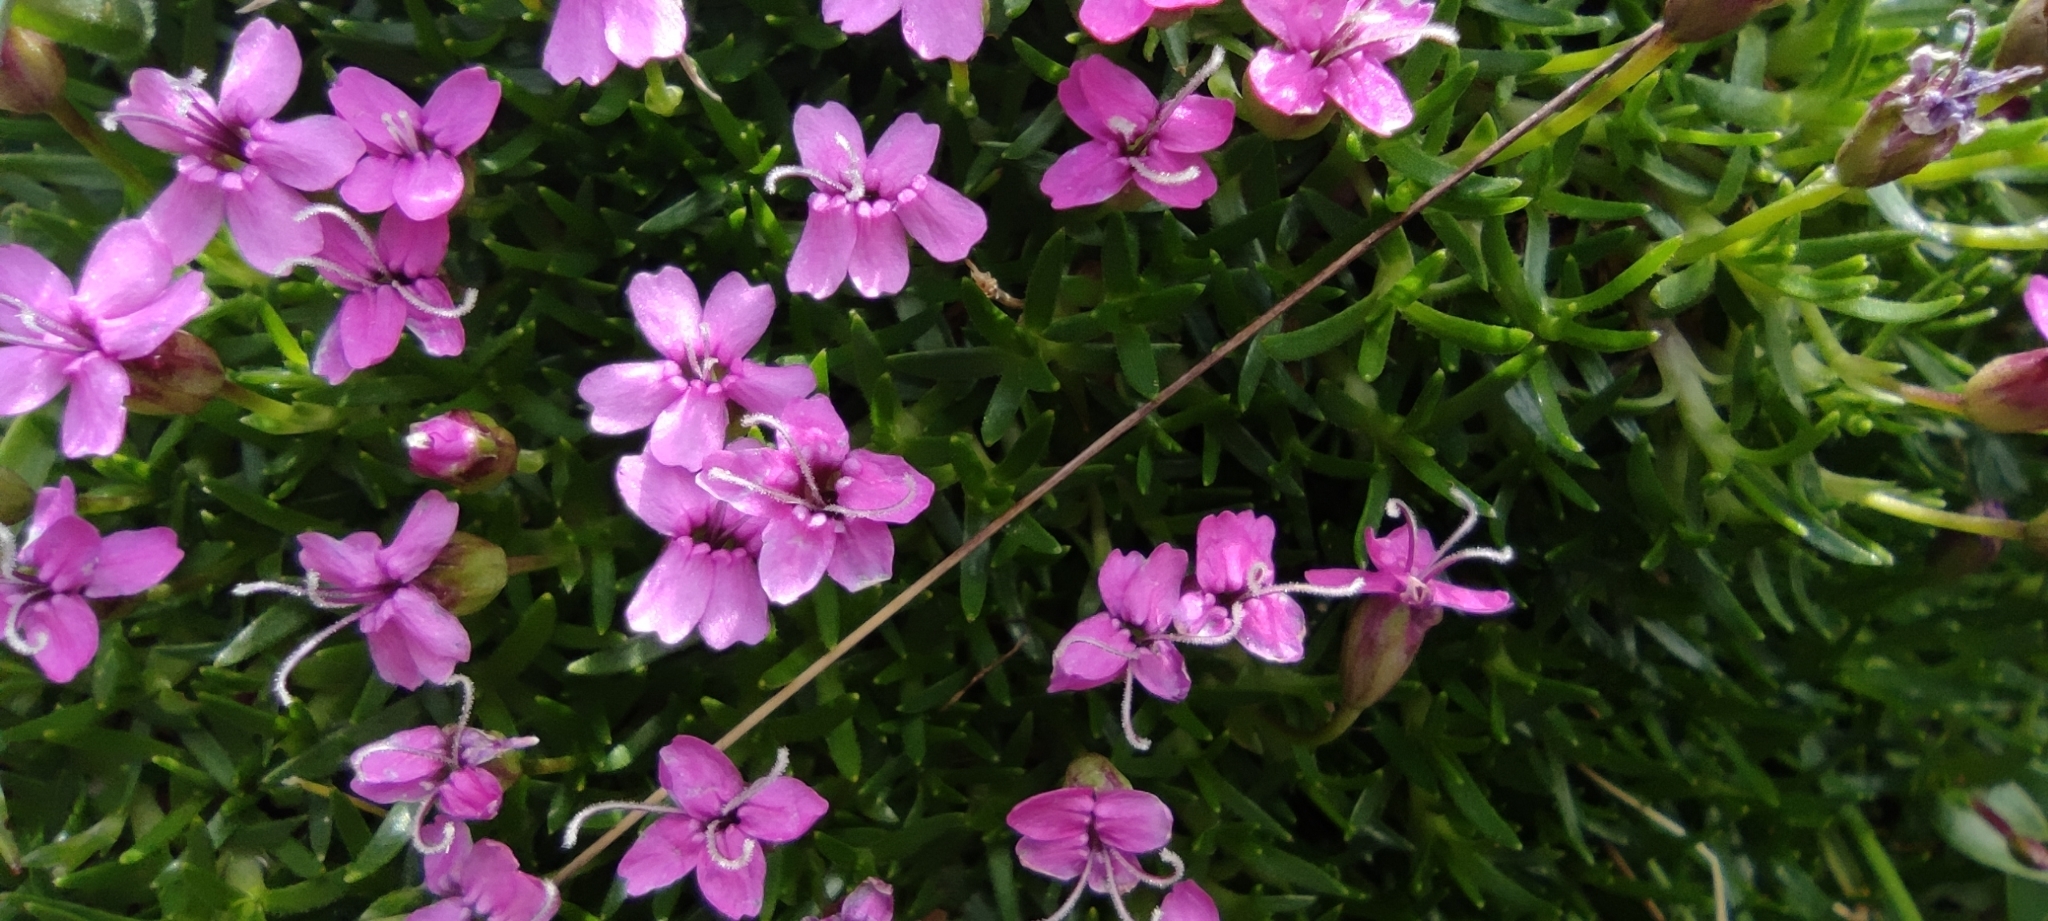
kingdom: Plantae
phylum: Tracheophyta
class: Magnoliopsida
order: Caryophyllales
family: Caryophyllaceae
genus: Silene
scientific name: Silene acaulis
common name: Moss campion
